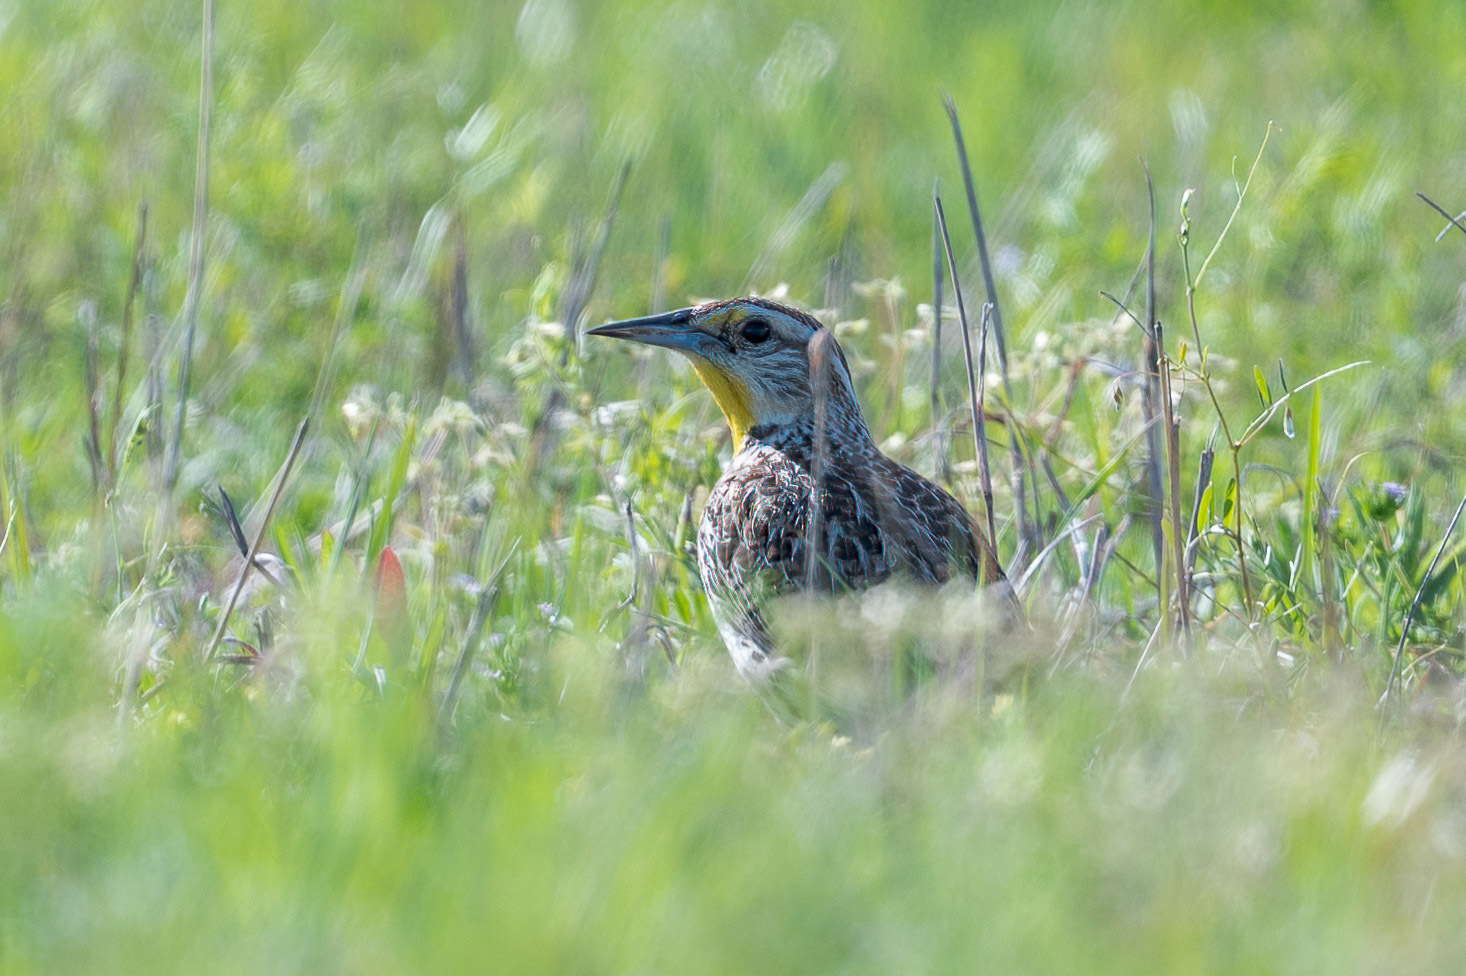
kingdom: Animalia
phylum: Chordata
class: Aves
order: Passeriformes
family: Icteridae
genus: Sturnella
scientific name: Sturnella neglecta
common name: Western meadowlark
